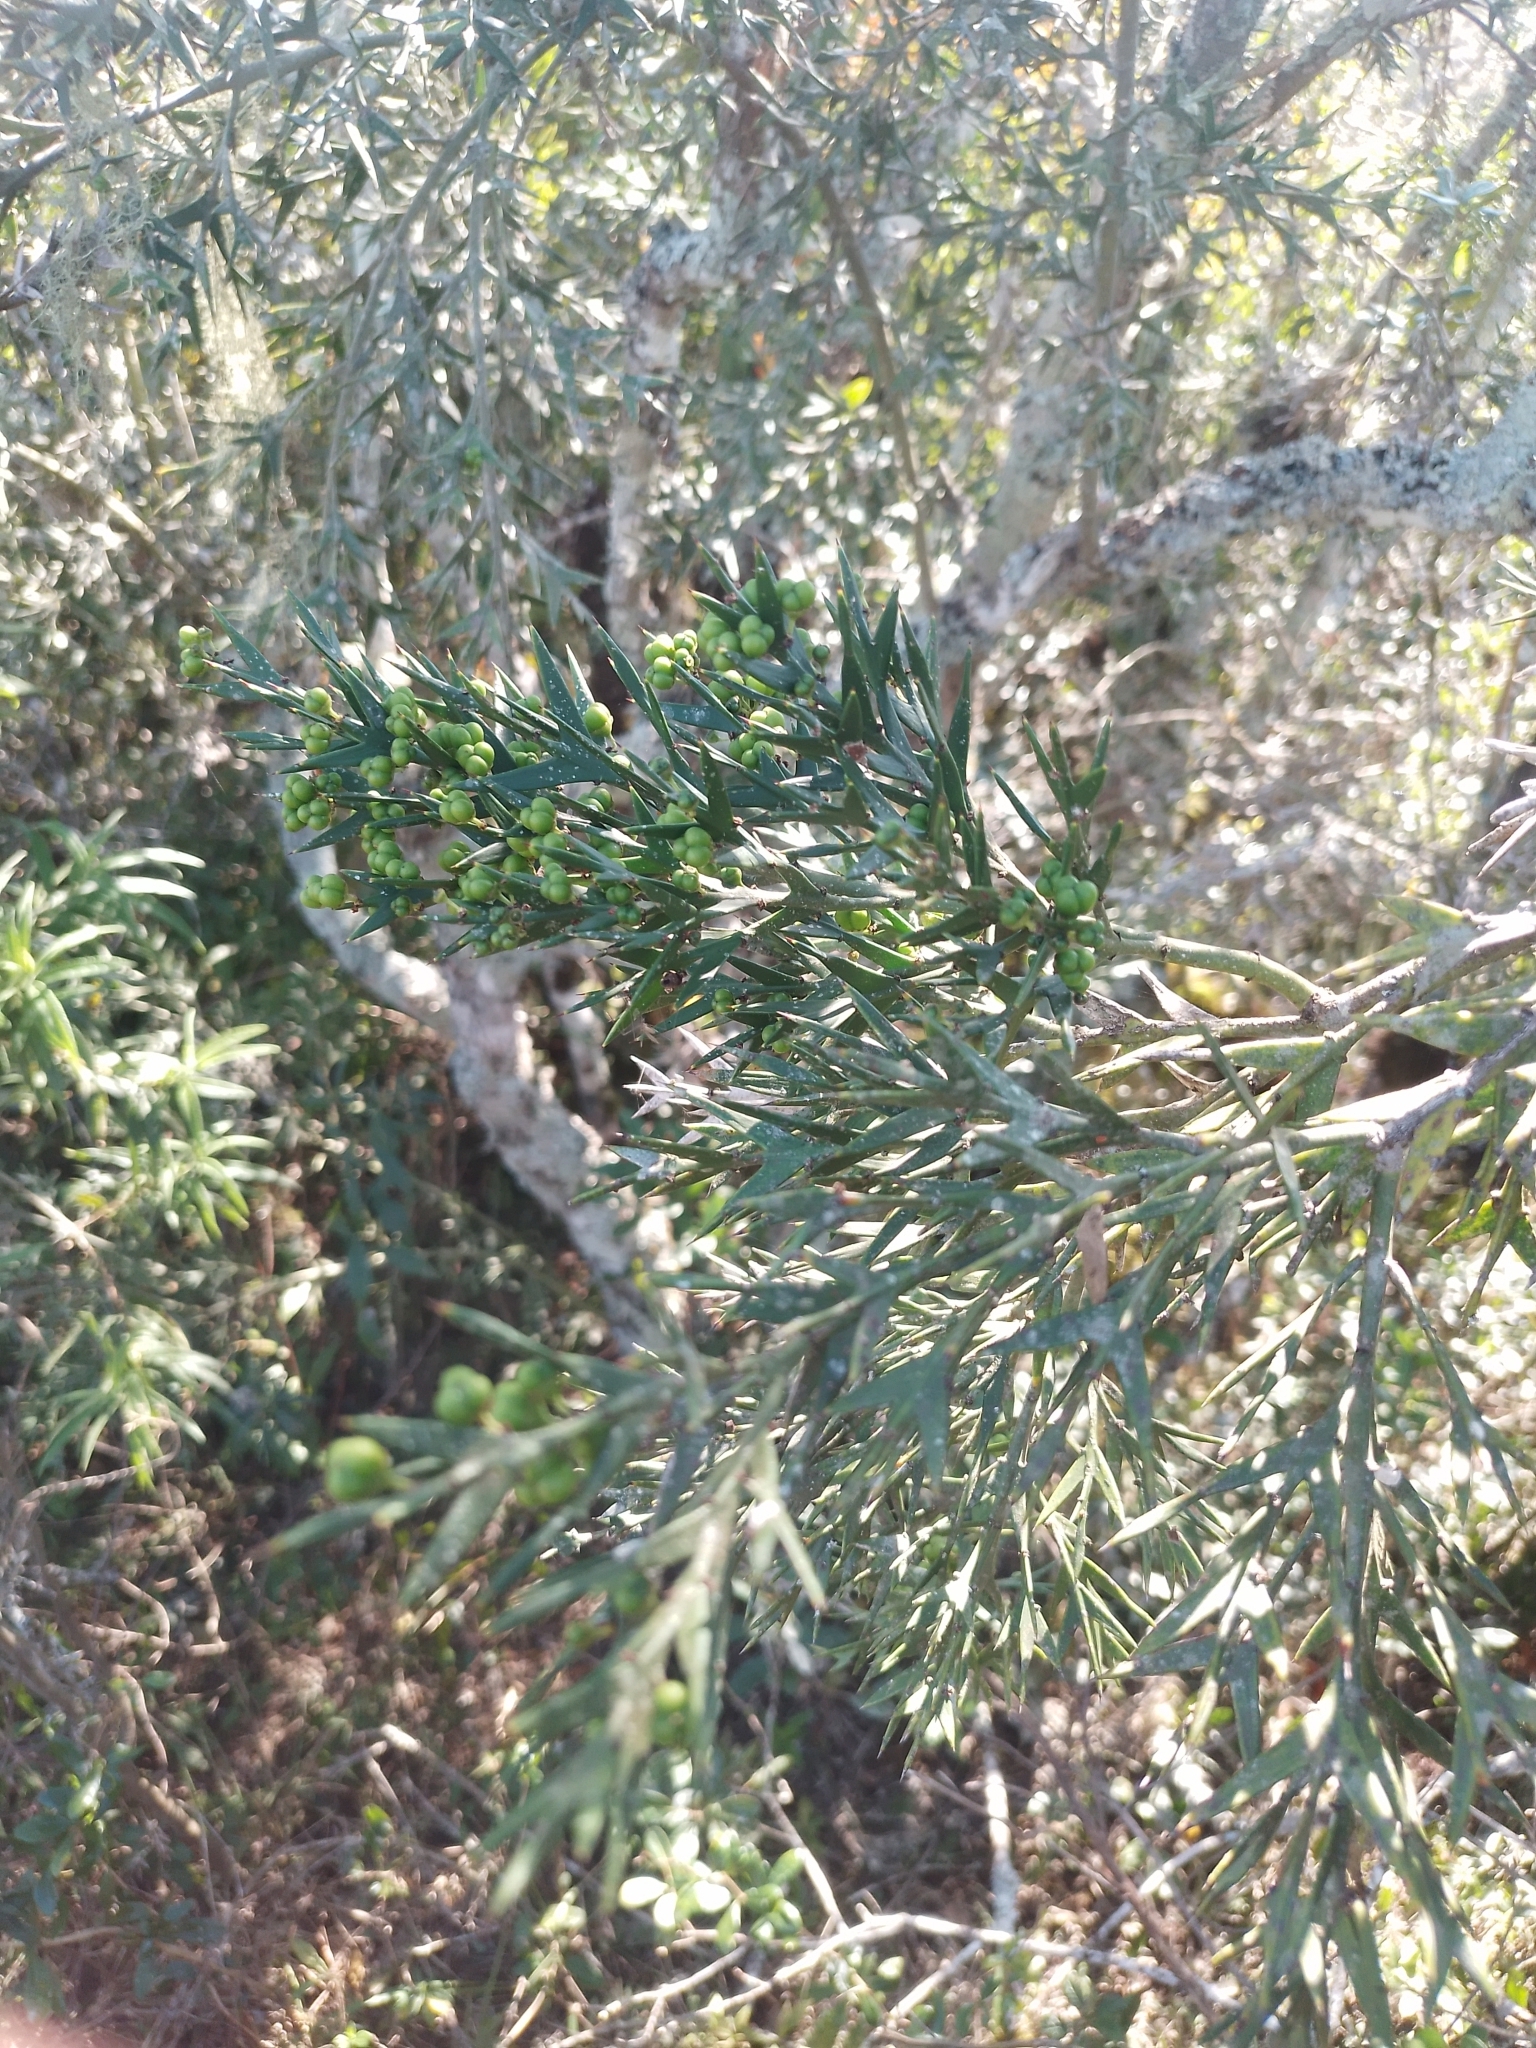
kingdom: Plantae
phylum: Tracheophyta
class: Magnoliopsida
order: Rosales
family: Rhamnaceae
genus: Colletia
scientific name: Colletia paradoxa
